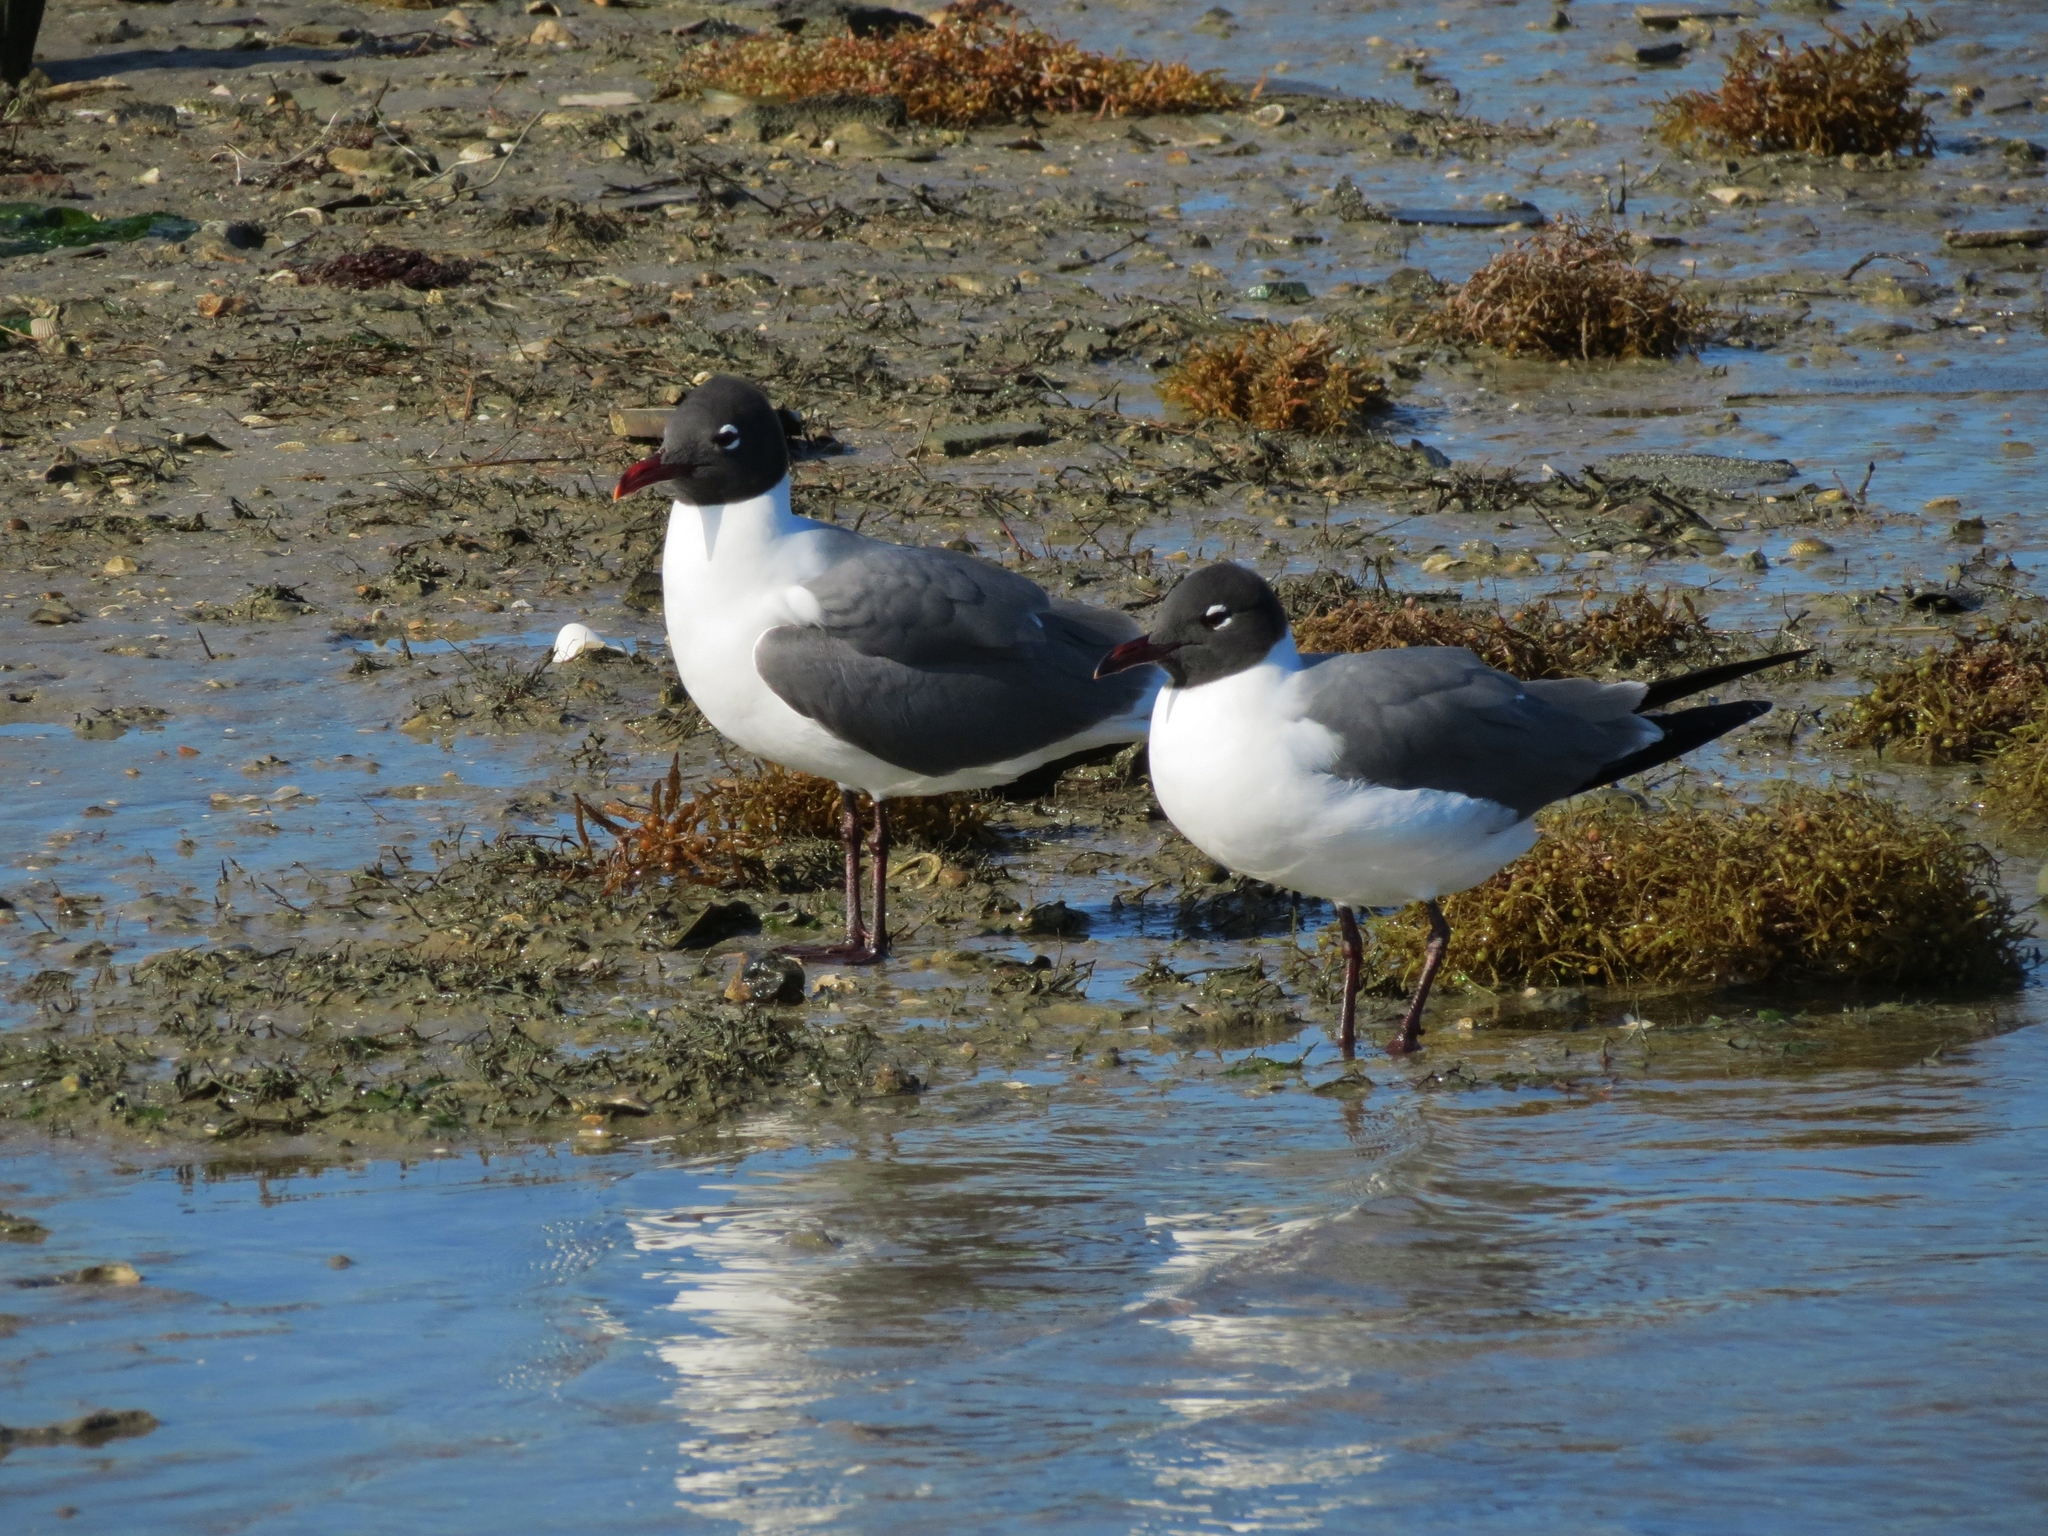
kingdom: Animalia
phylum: Chordata
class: Aves
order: Charadriiformes
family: Laridae
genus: Leucophaeus
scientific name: Leucophaeus atricilla
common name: Laughing gull
